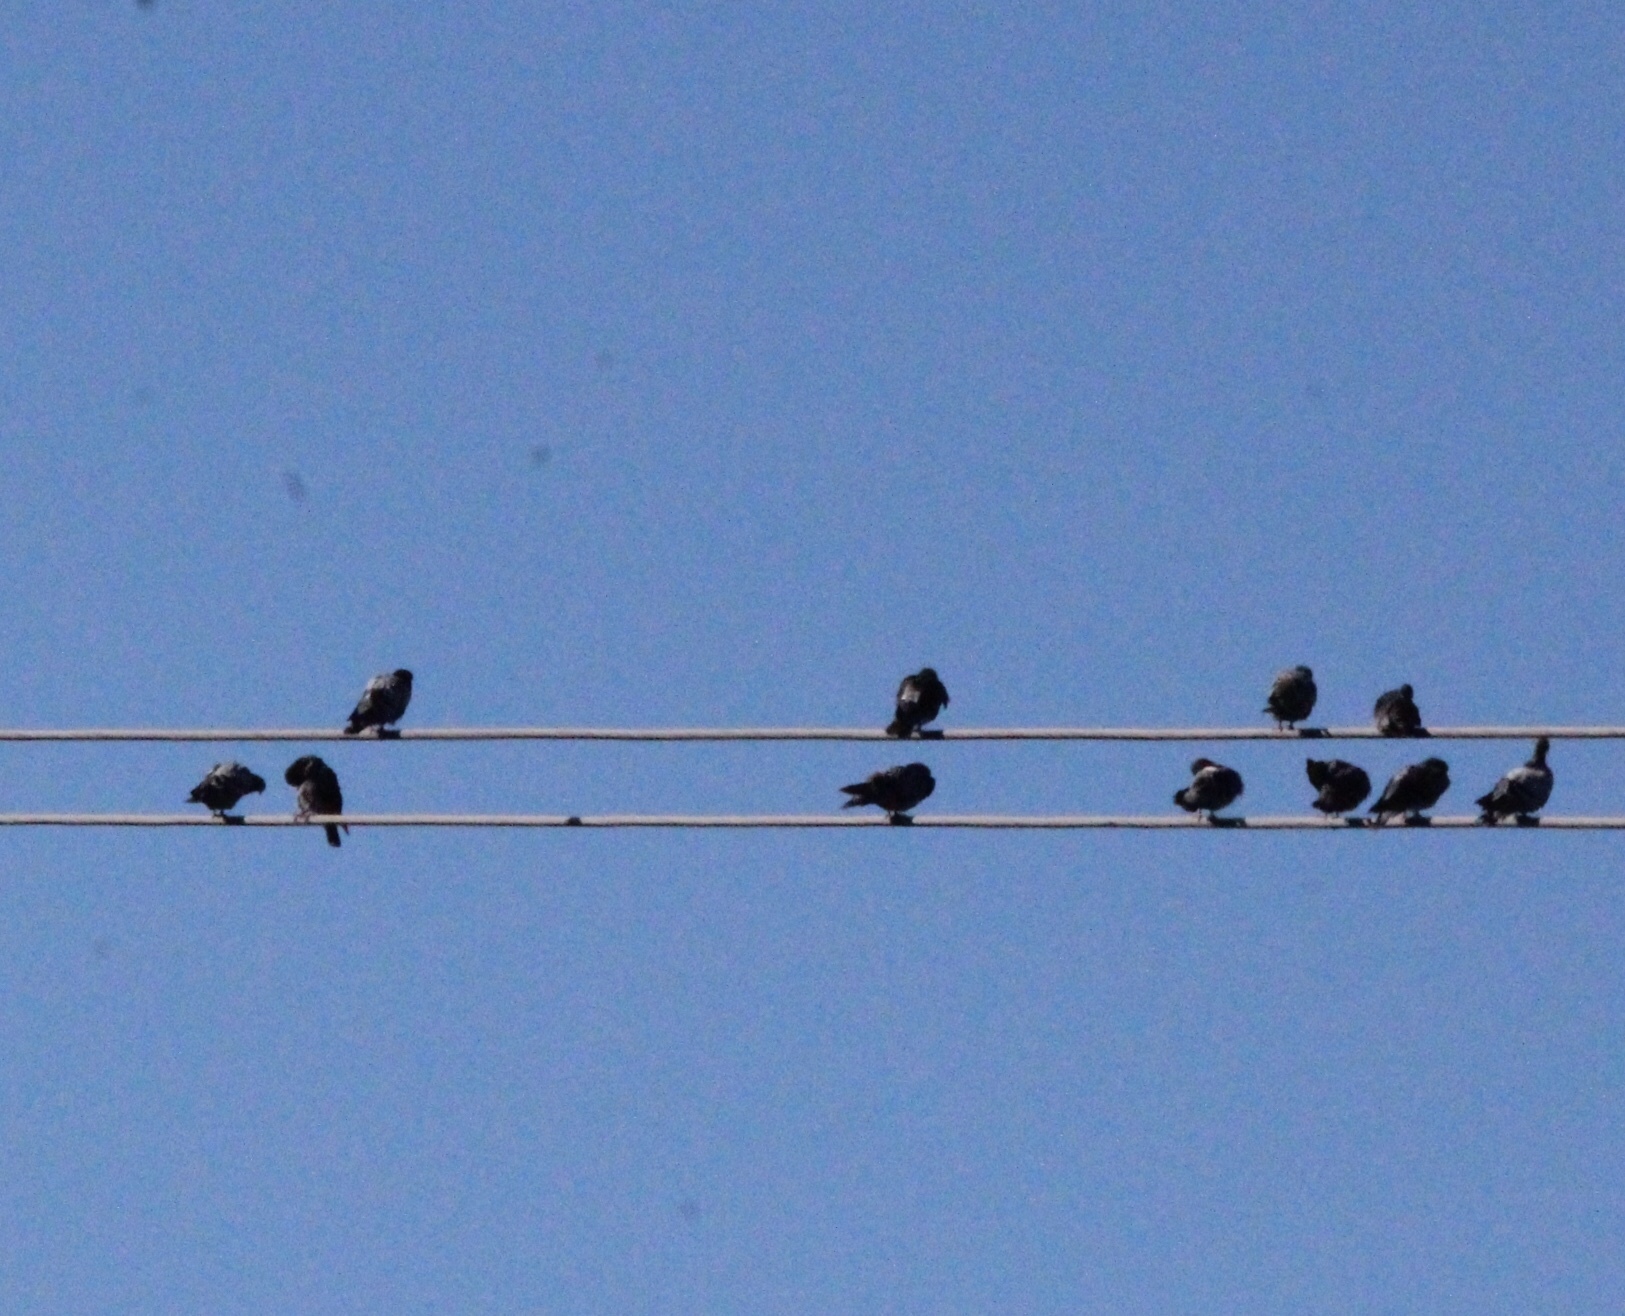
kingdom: Animalia
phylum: Chordata
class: Aves
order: Columbiformes
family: Columbidae
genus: Columba
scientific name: Columba livia
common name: Rock pigeon
